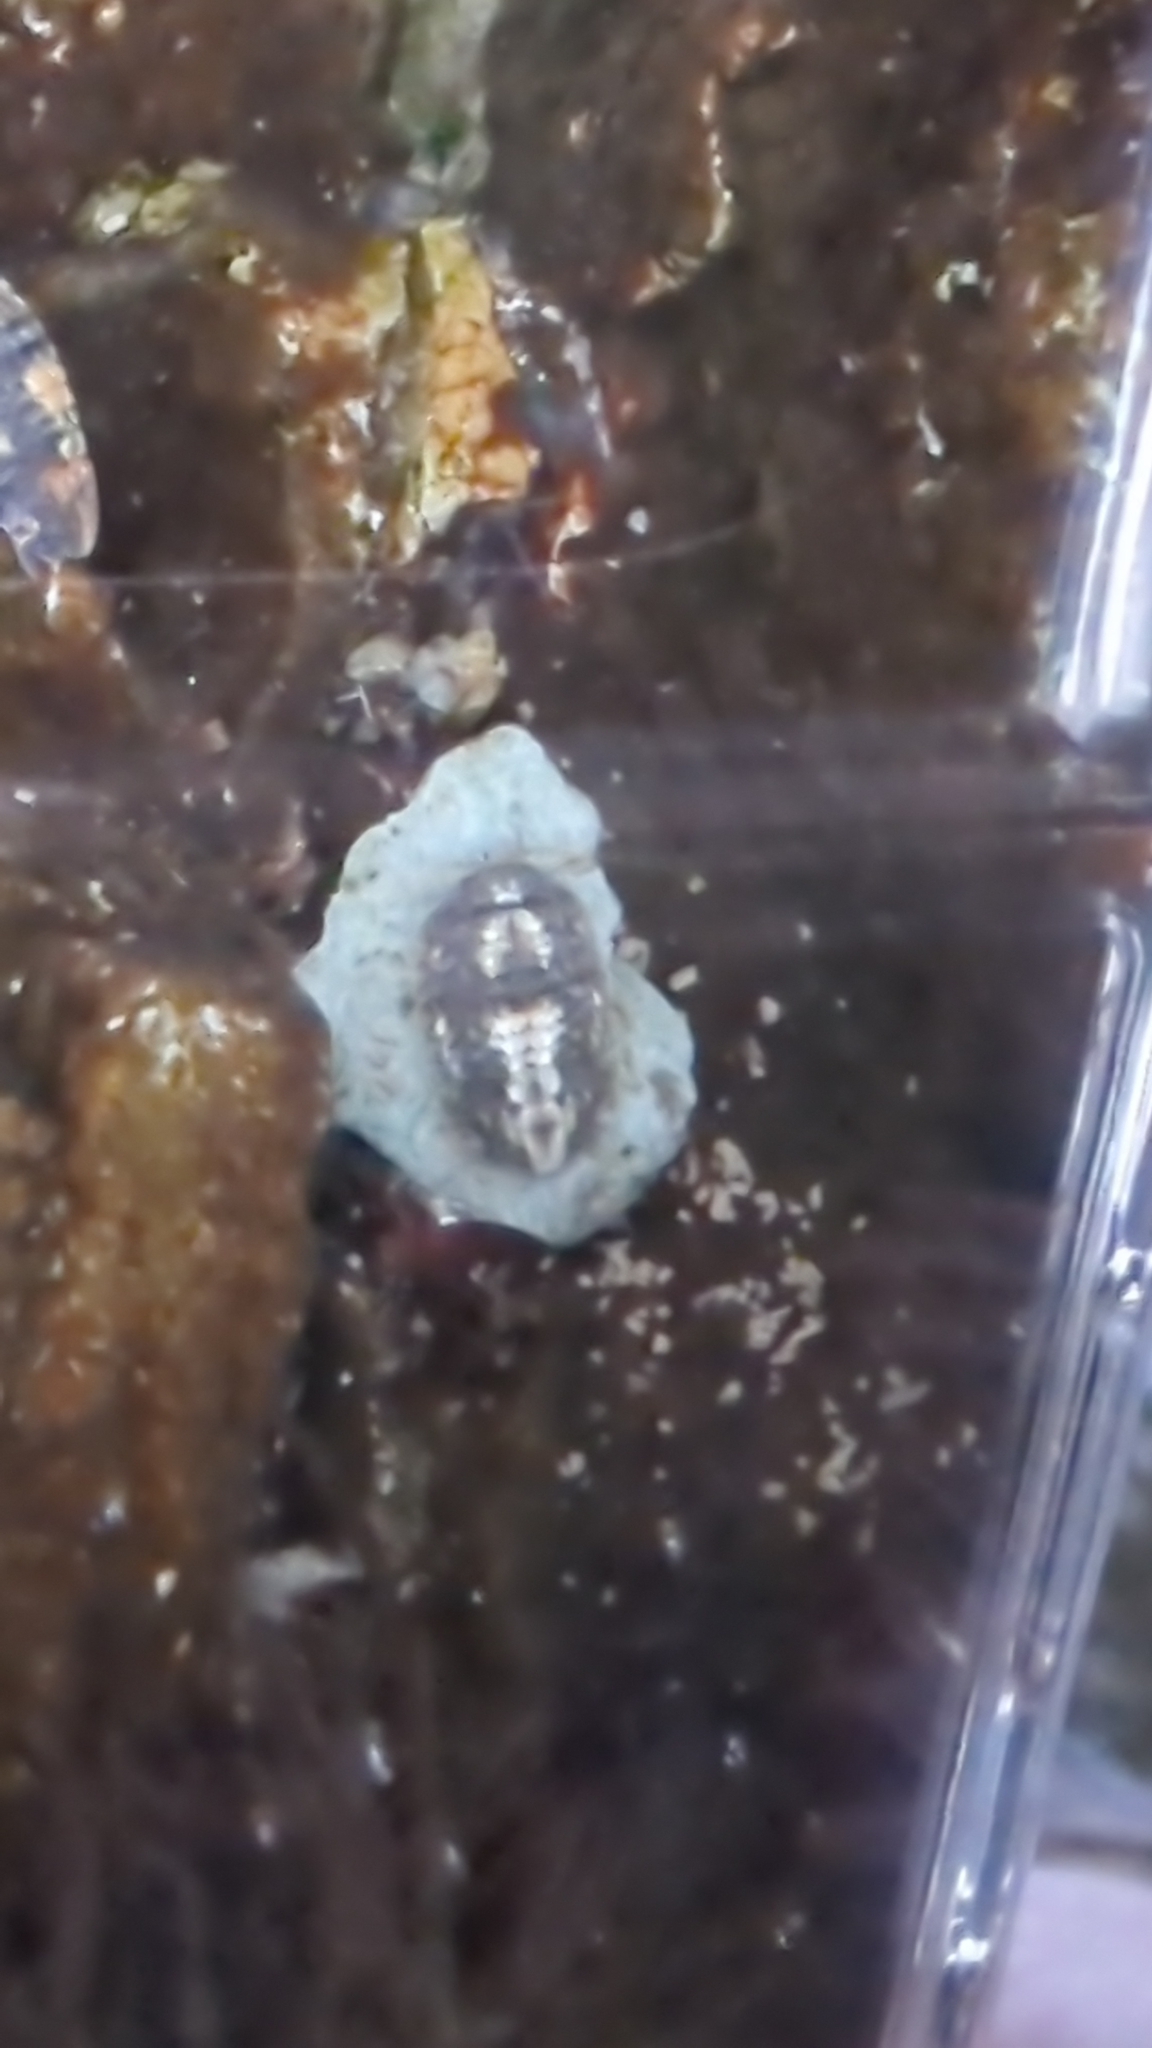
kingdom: Animalia
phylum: Arthropoda
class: Malacostraca
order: Isopoda
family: Sphaeromatidae
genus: Gnorimosphaeroma
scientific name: Gnorimosphaeroma oregonense
